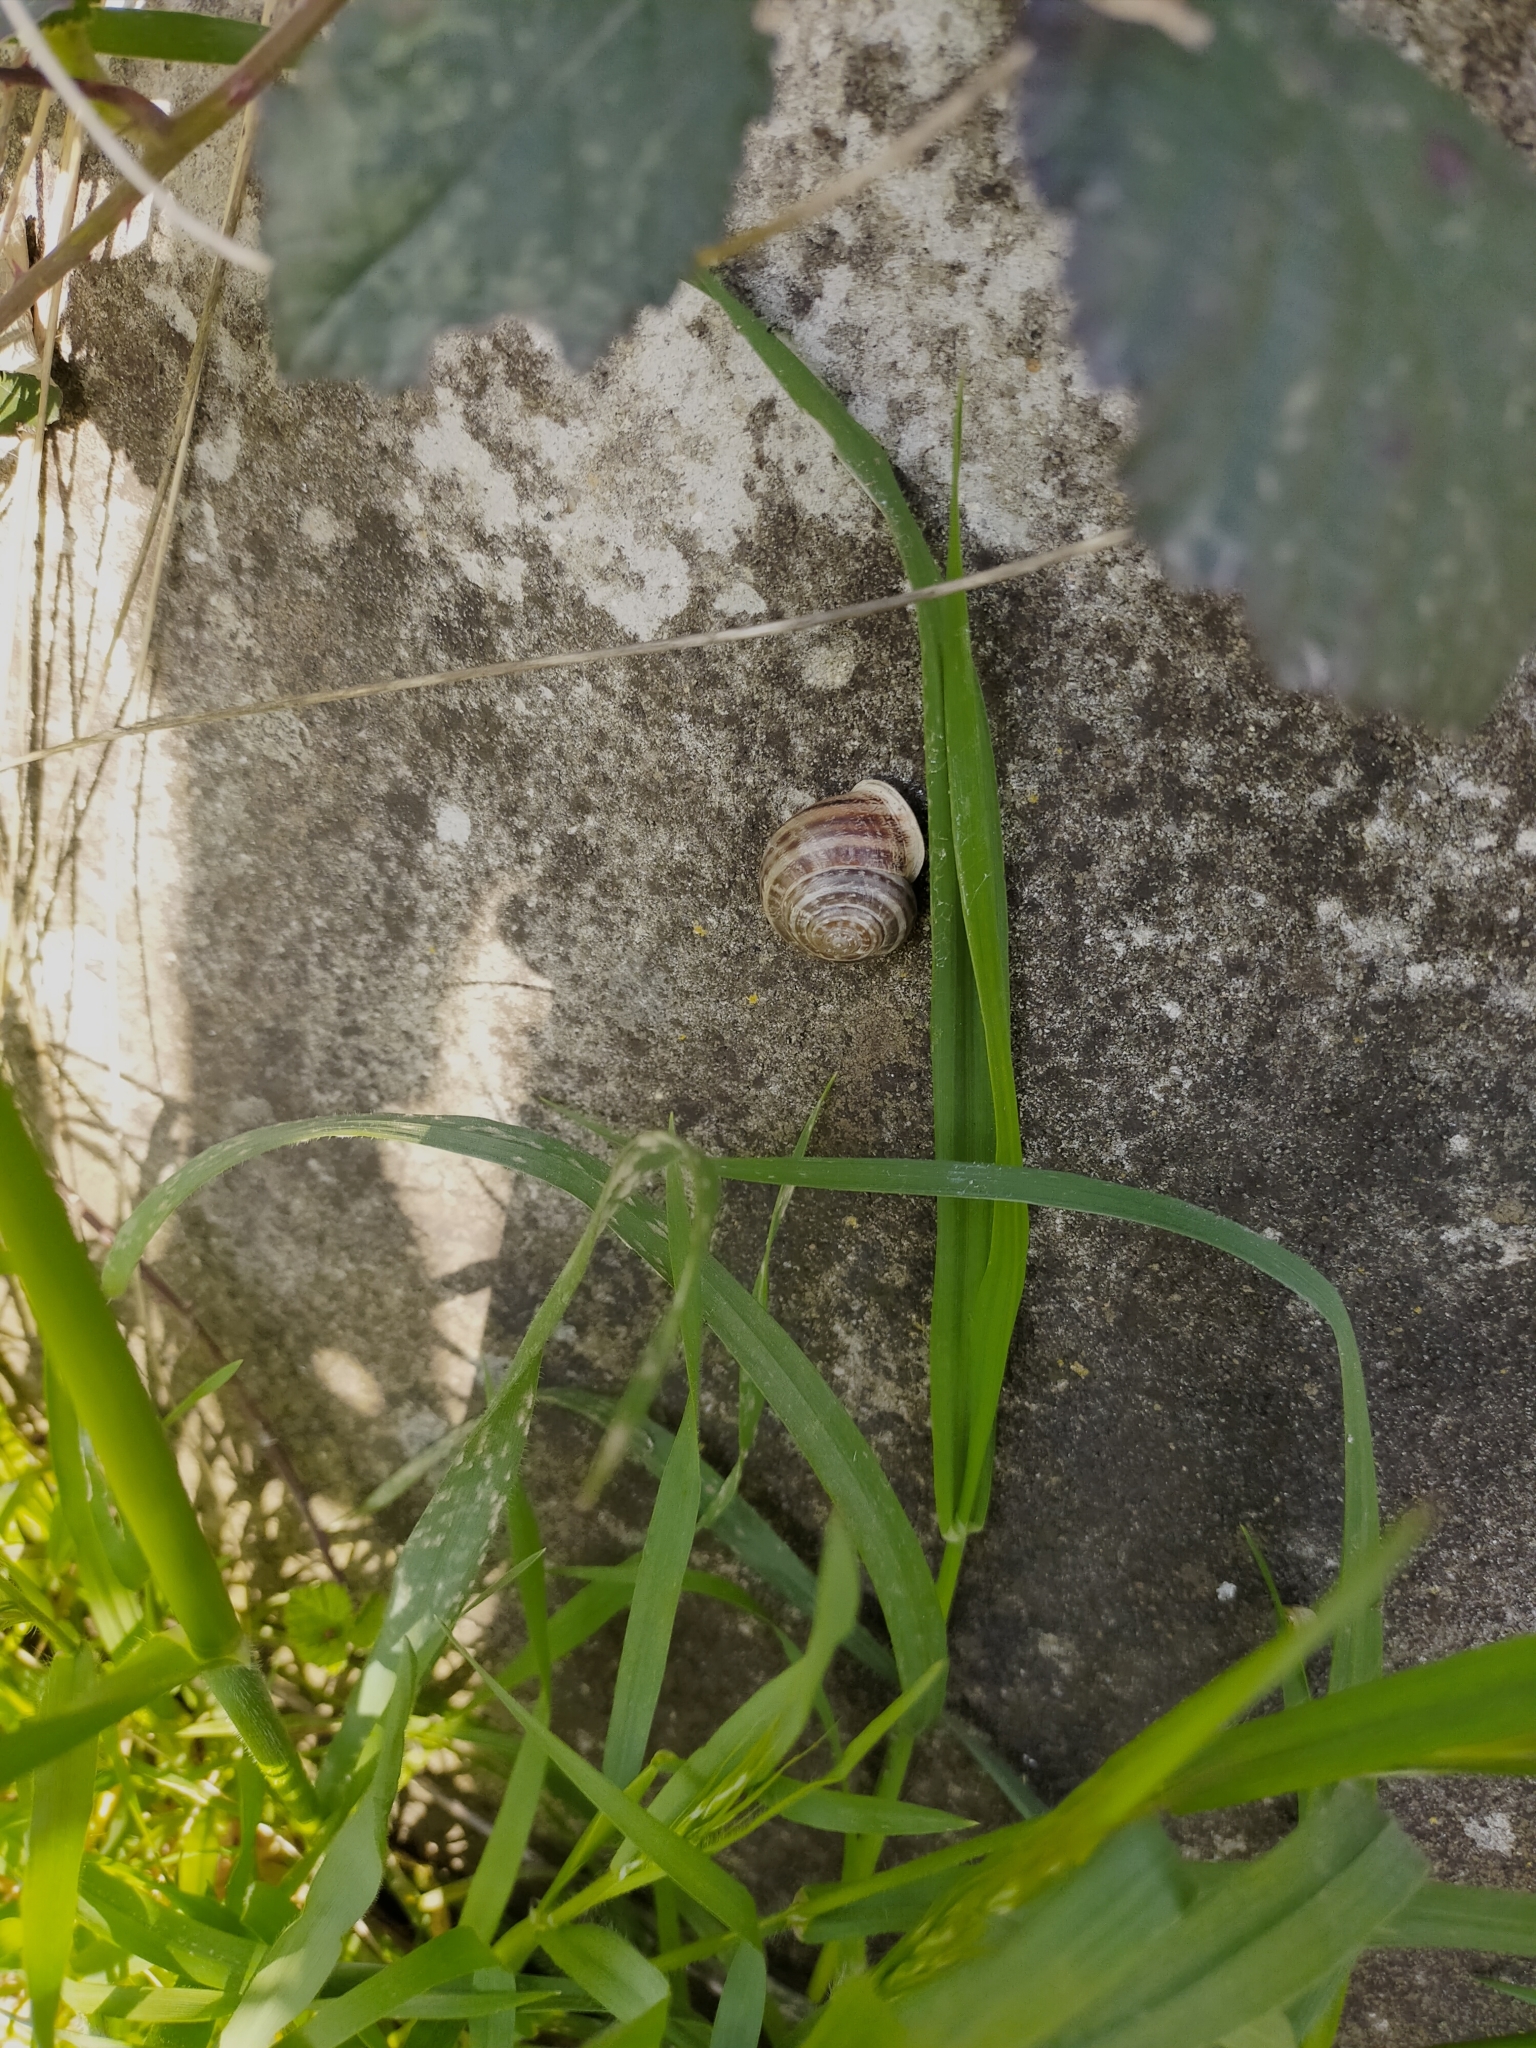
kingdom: Animalia
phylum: Mollusca
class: Gastropoda
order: Stylommatophora
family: Helicidae
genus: Eobania
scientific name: Eobania vermiculata
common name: Chocolateband snail
